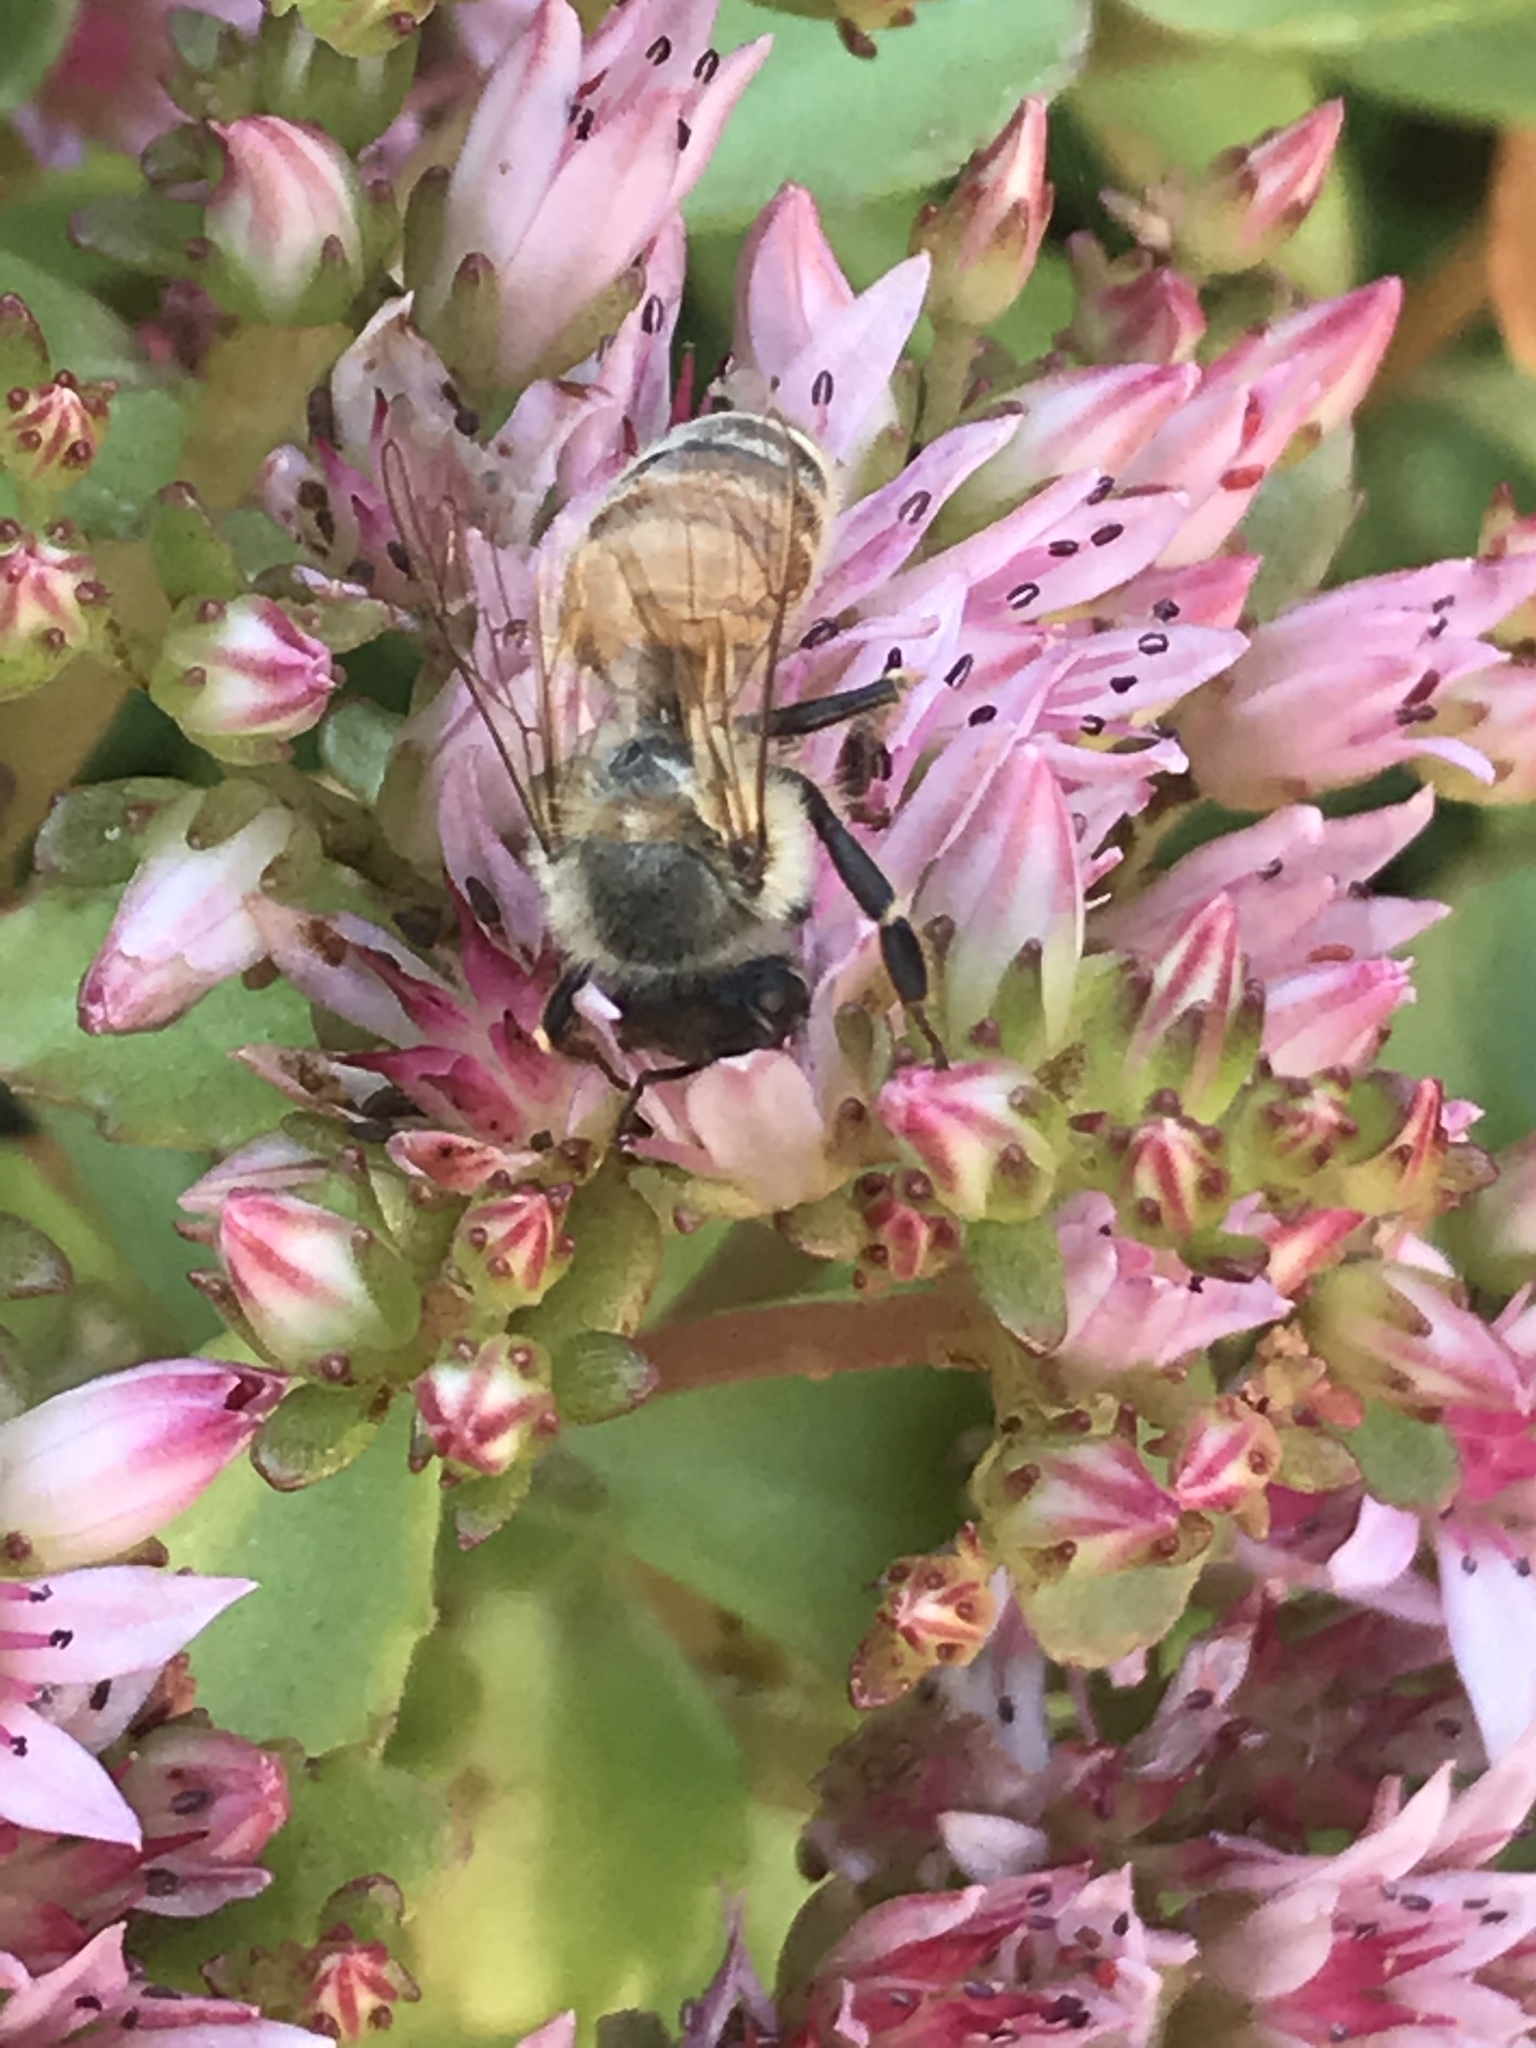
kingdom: Animalia
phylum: Arthropoda
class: Insecta
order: Hymenoptera
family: Apidae
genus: Apis
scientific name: Apis mellifera
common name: Honey bee
